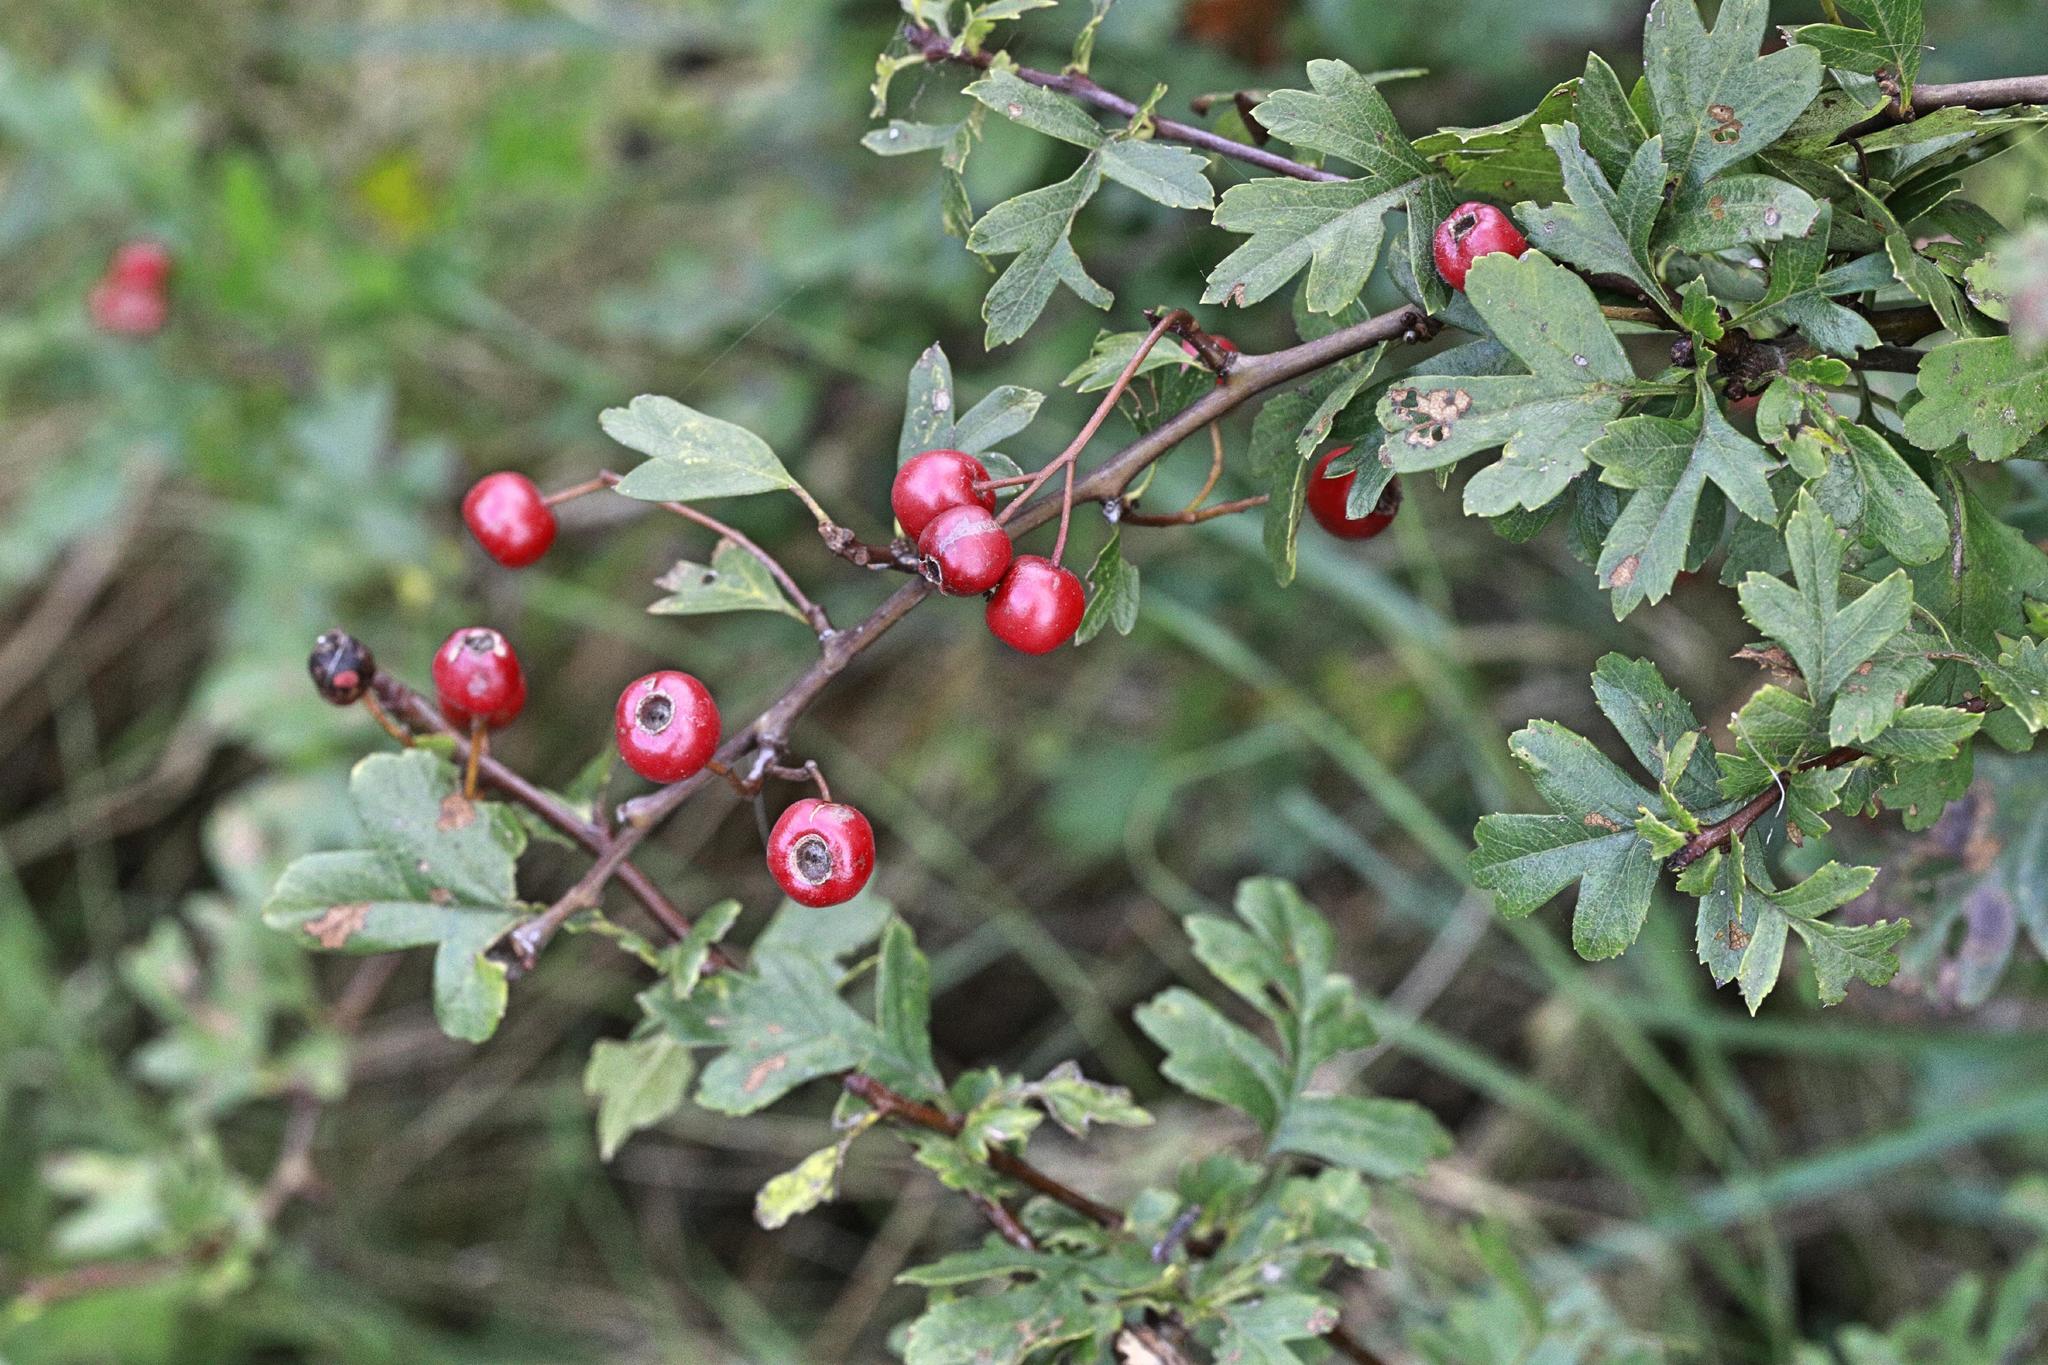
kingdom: Plantae
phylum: Tracheophyta
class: Magnoliopsida
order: Rosales
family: Rosaceae
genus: Crataegus
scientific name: Crataegus monogyna
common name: Hawthorn
